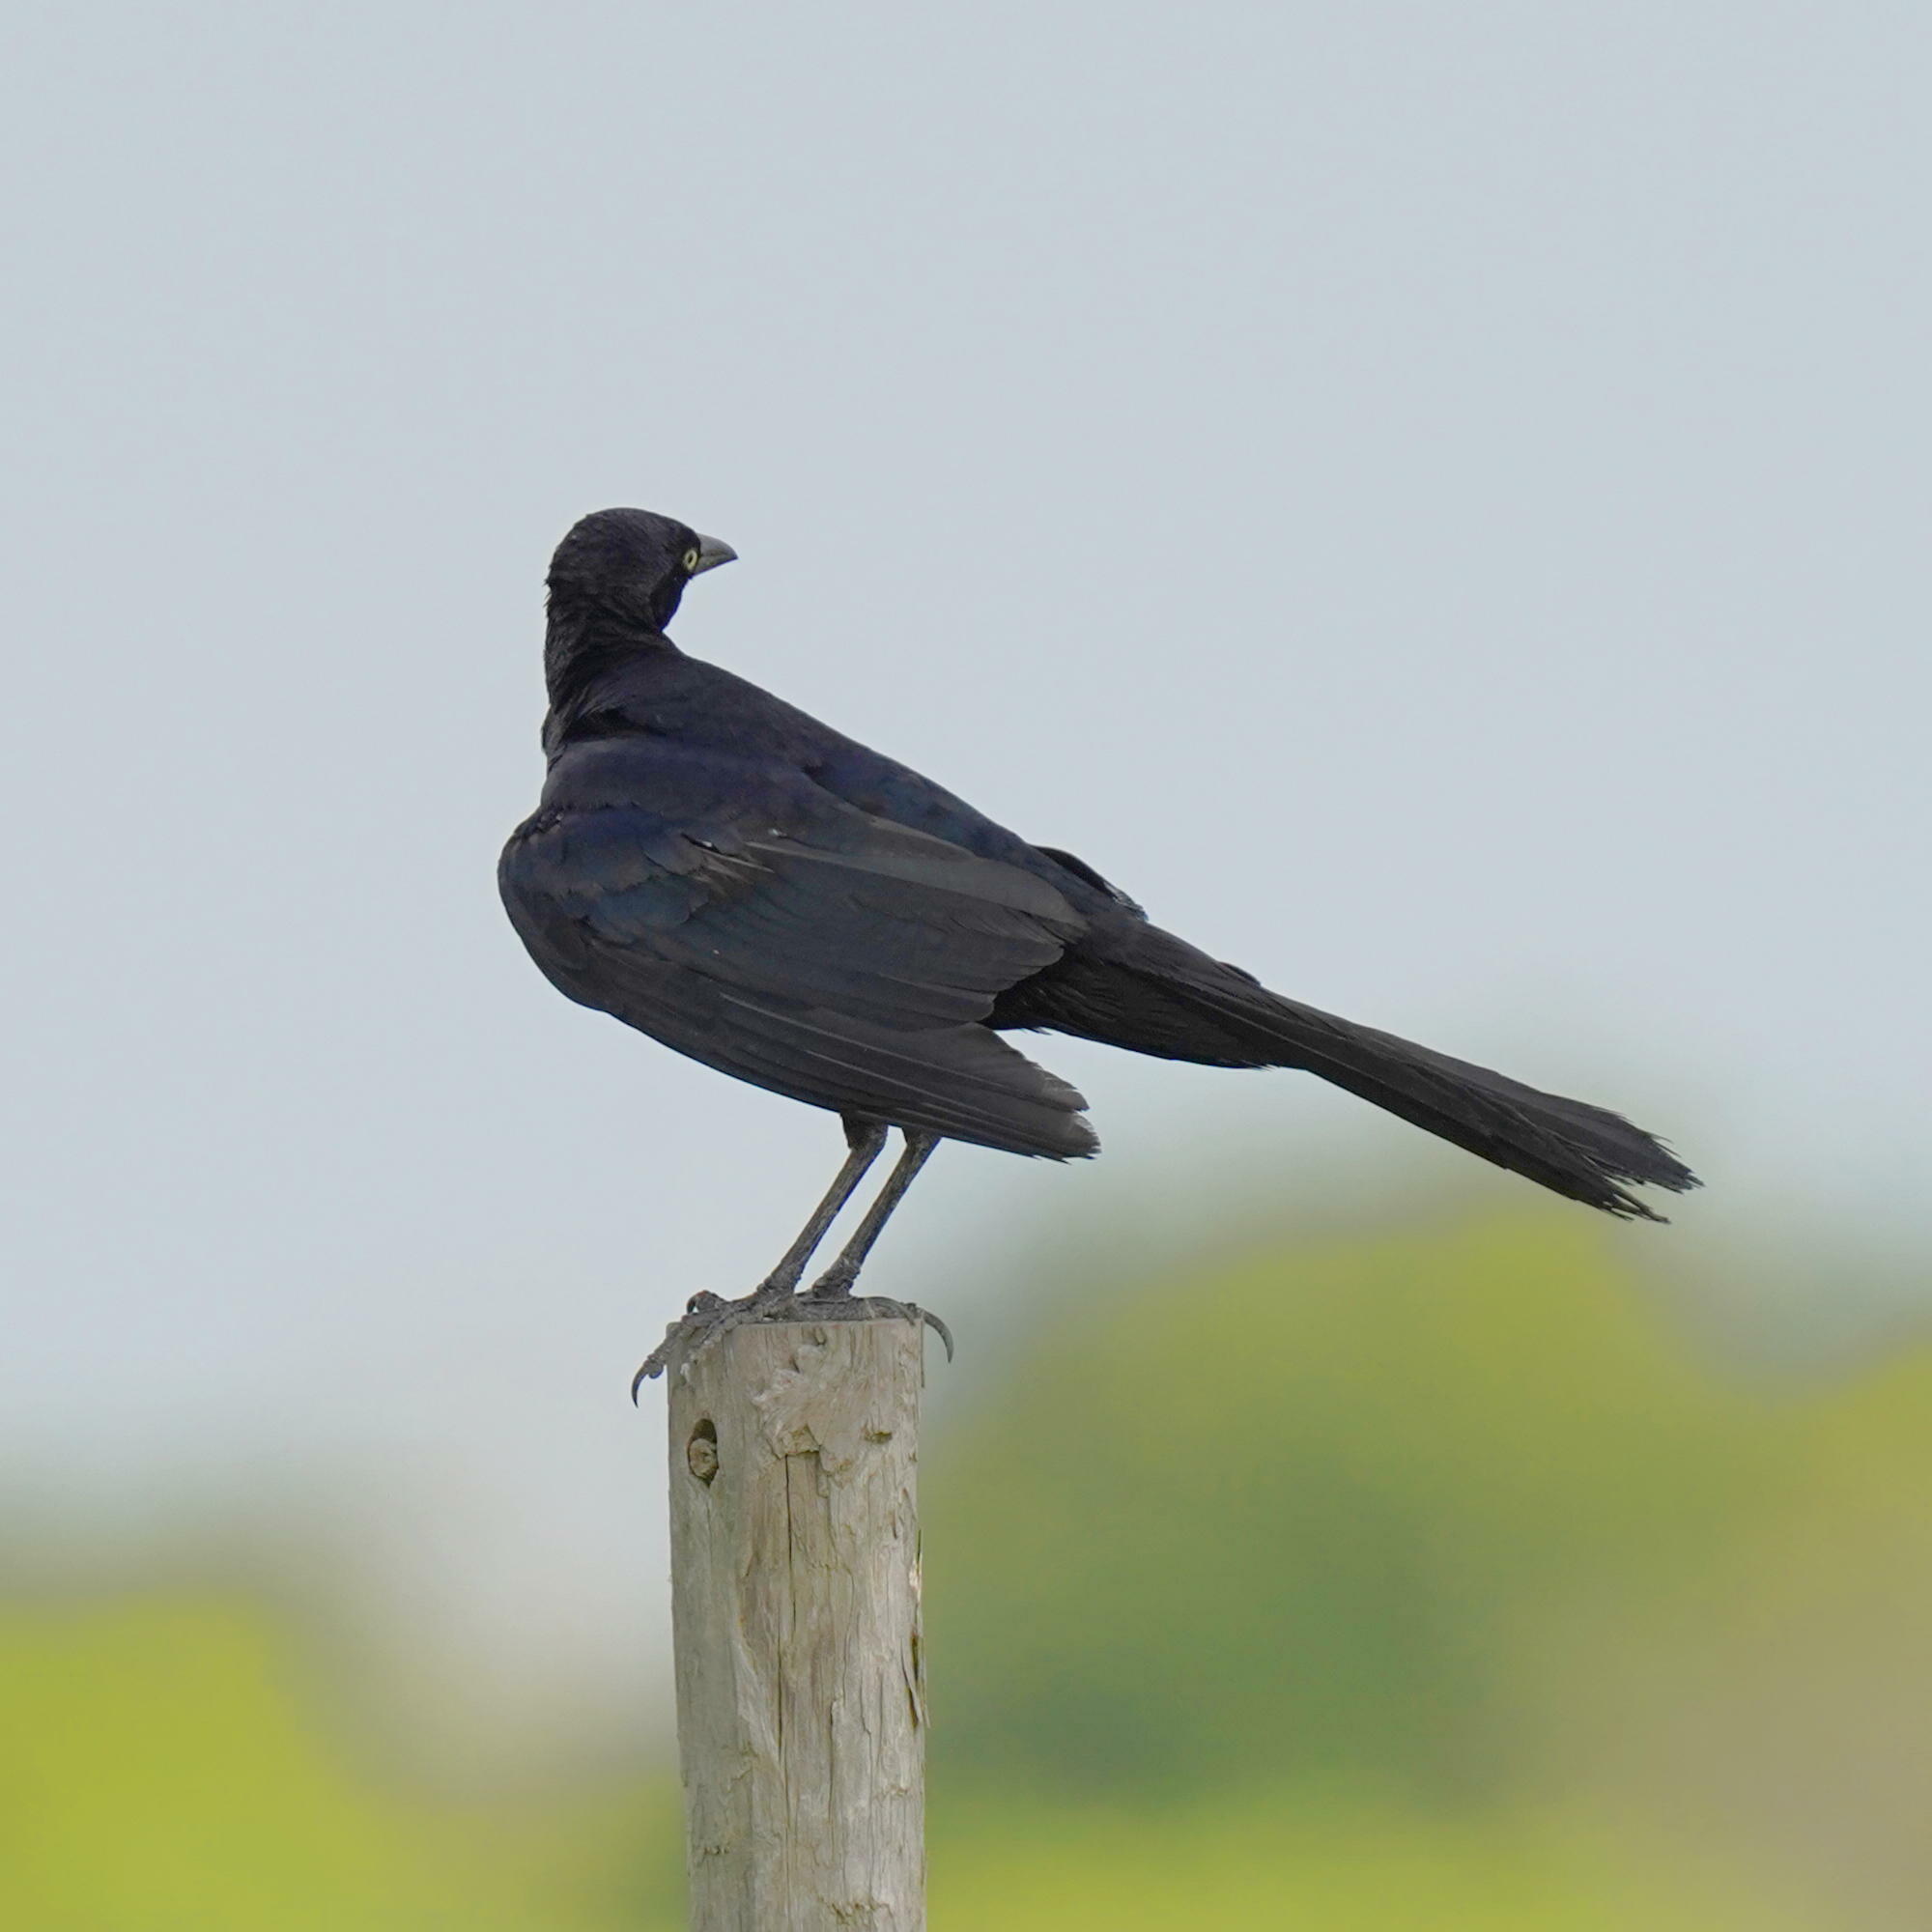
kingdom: Animalia
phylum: Chordata
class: Aves
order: Passeriformes
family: Icteridae
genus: Quiscalus
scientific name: Quiscalus mexicanus
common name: Great-tailed grackle
